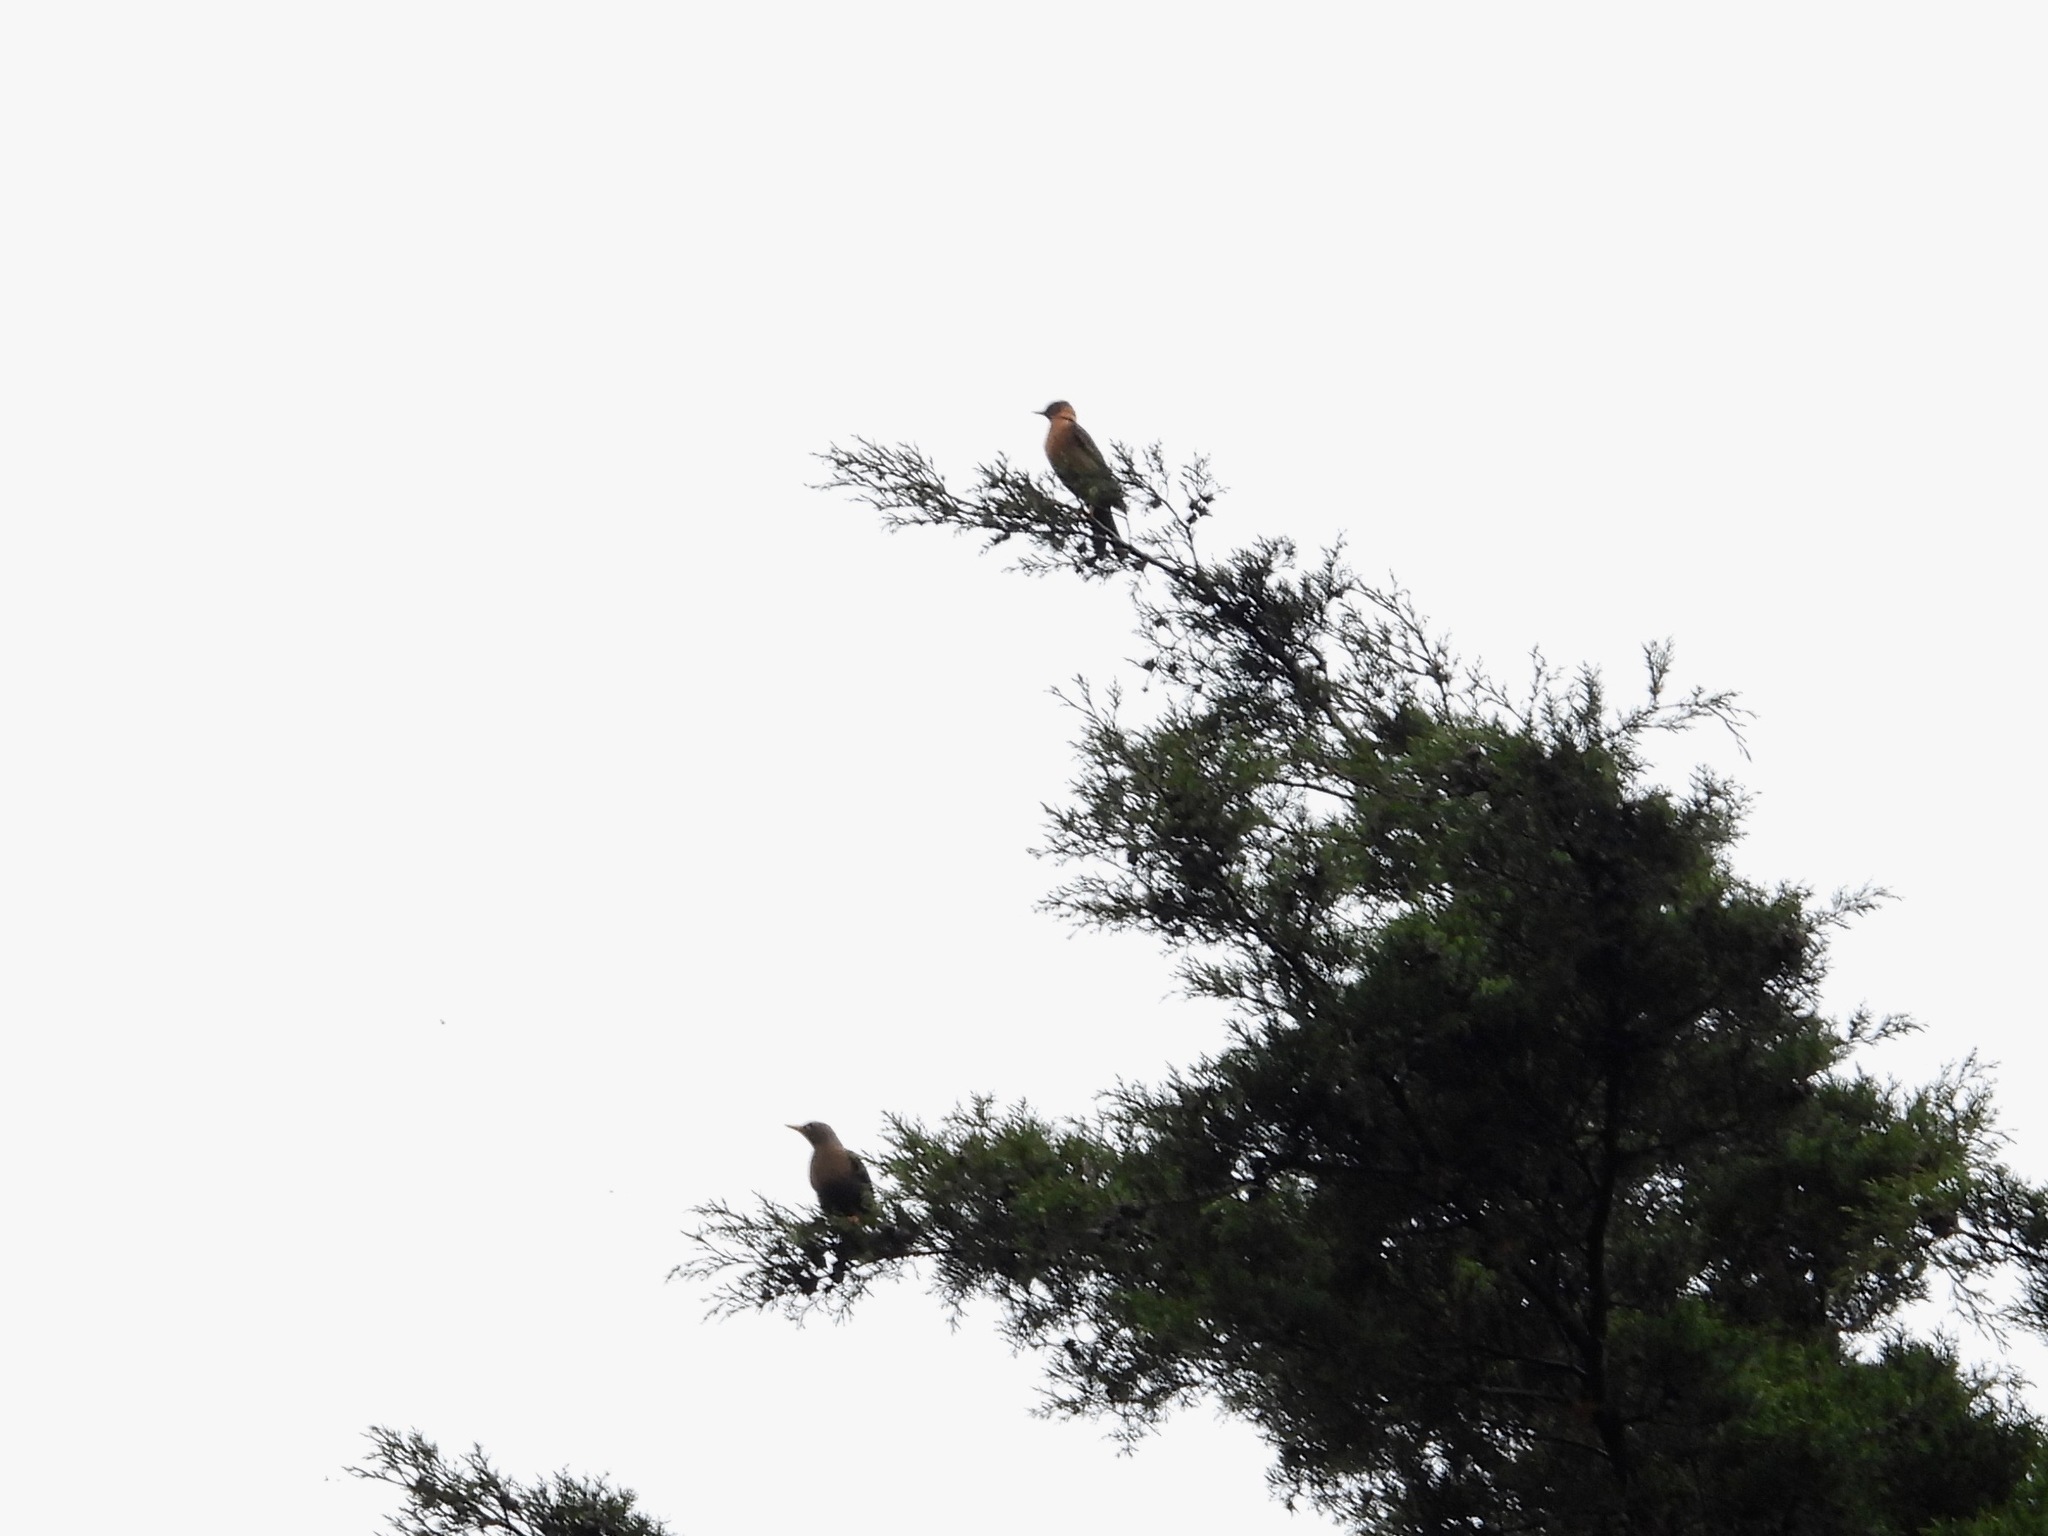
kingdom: Animalia
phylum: Chordata
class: Aves
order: Passeriformes
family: Turdidae
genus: Turdus
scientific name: Turdus rufitorques
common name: Rufous-collared thrush
